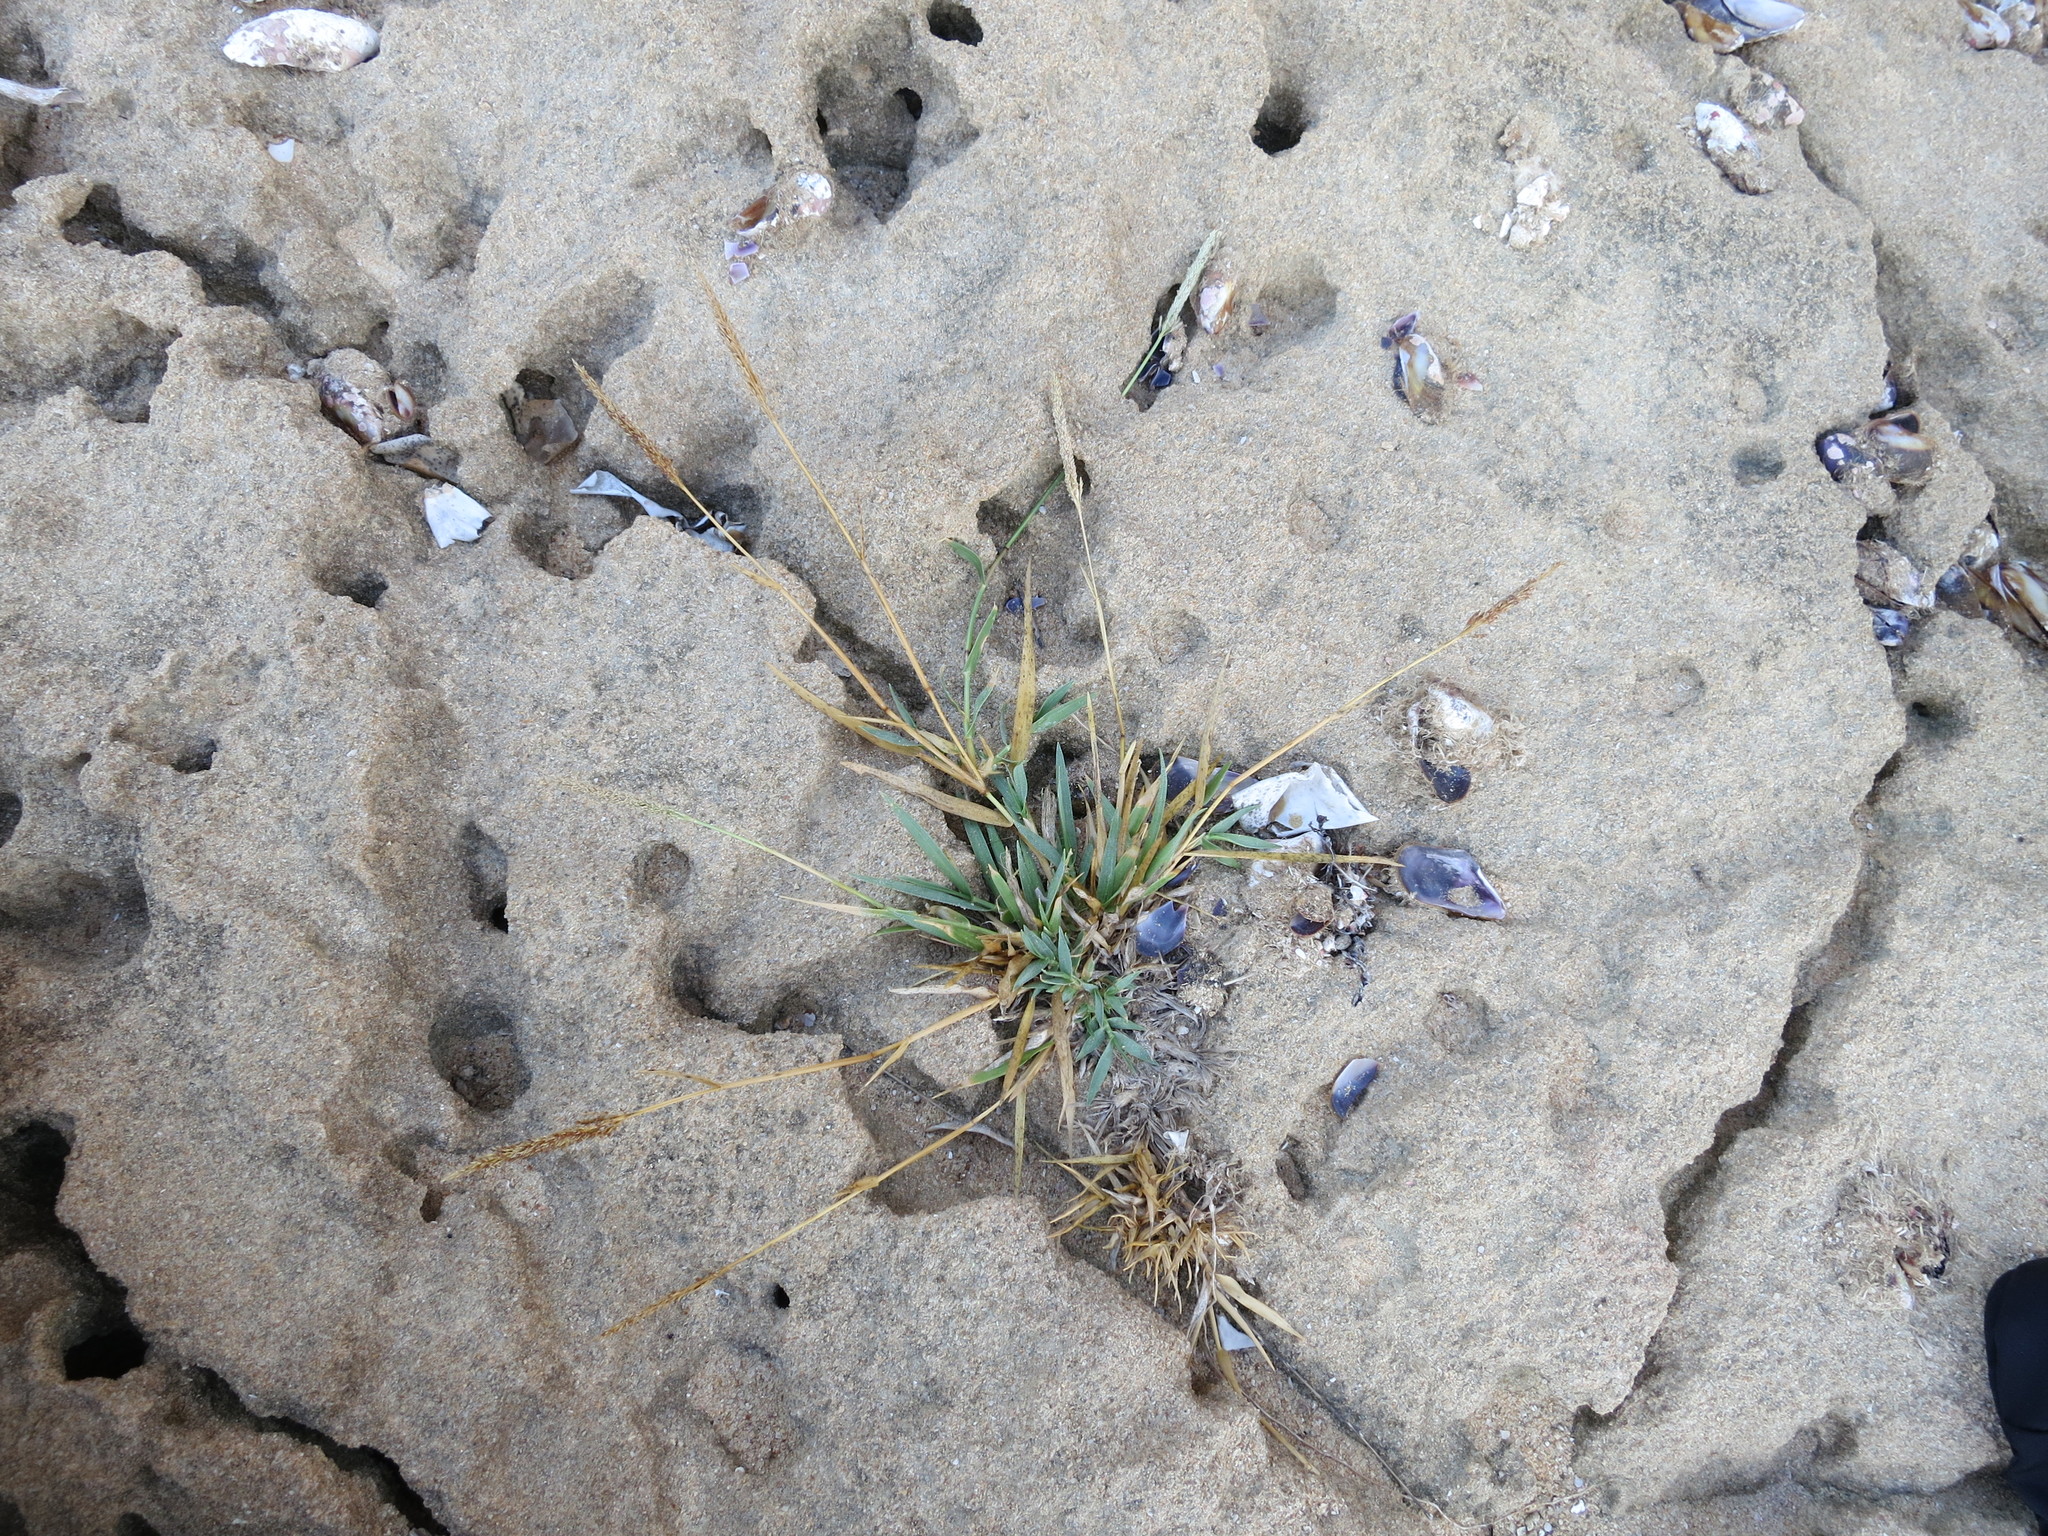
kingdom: Plantae
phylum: Tracheophyta
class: Liliopsida
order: Poales
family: Poaceae
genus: Sporobolus
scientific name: Sporobolus perrieri
